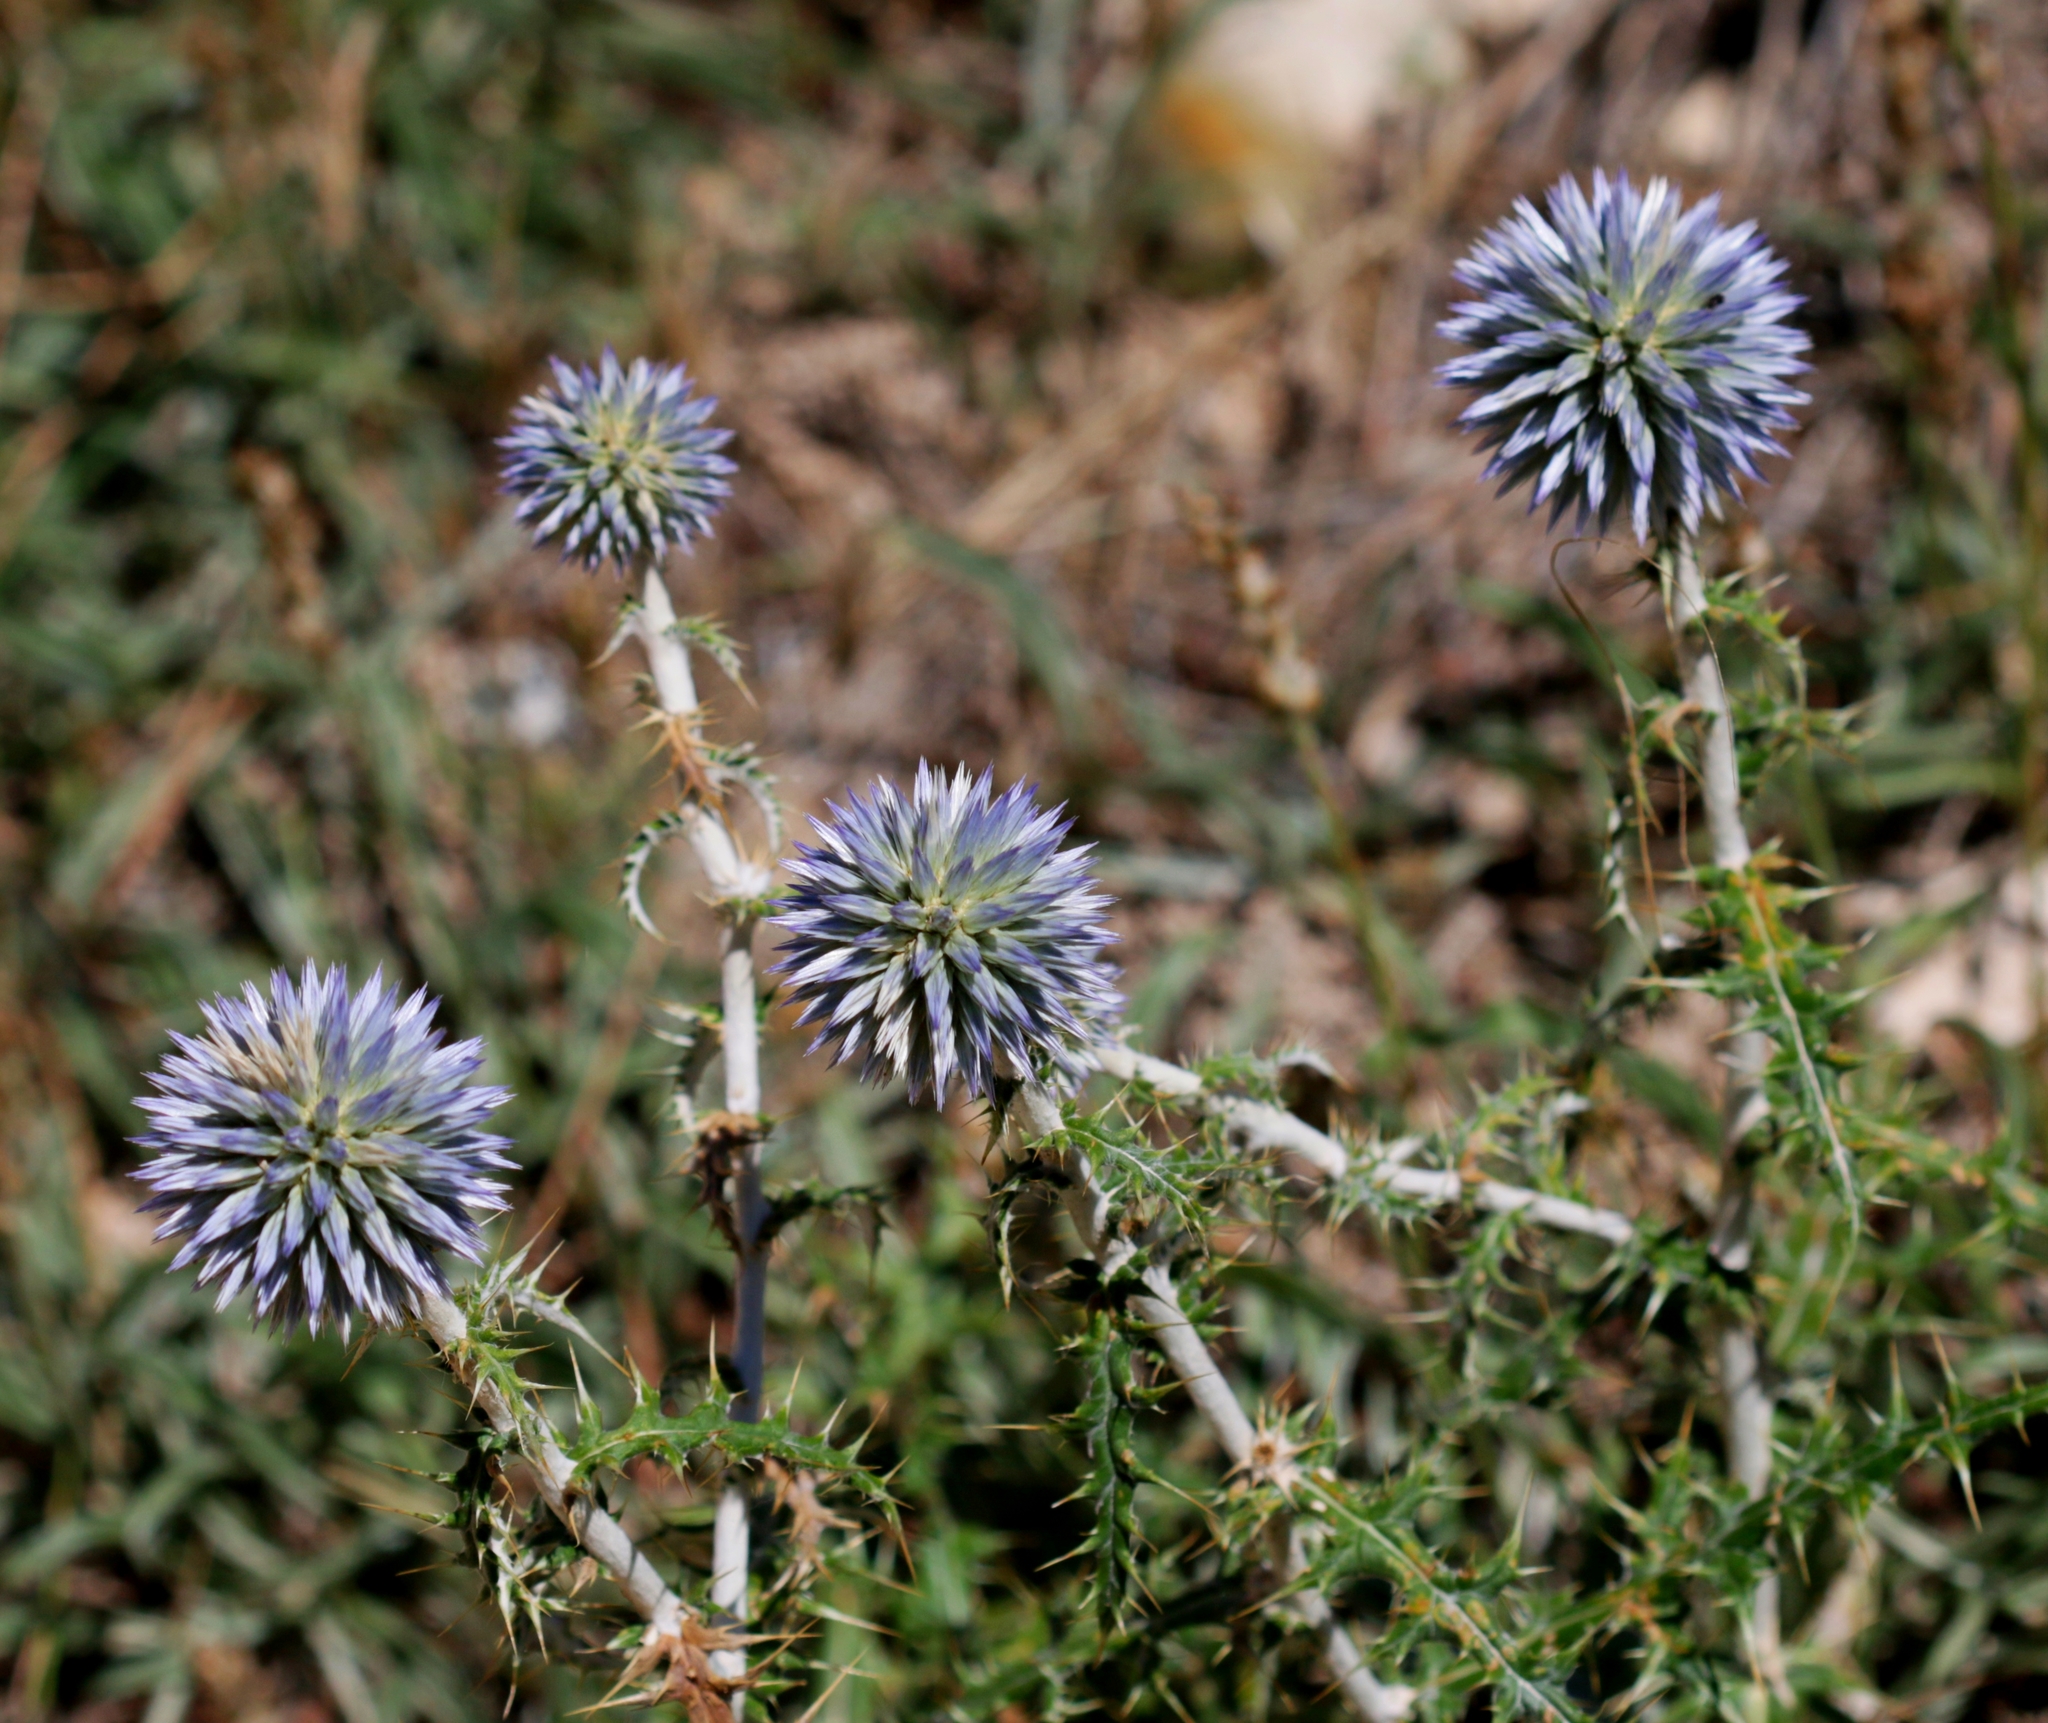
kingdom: Plantae
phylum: Tracheophyta
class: Magnoliopsida
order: Asterales
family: Asteraceae
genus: Echinops
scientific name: Echinops ritro
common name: Globe thistle
